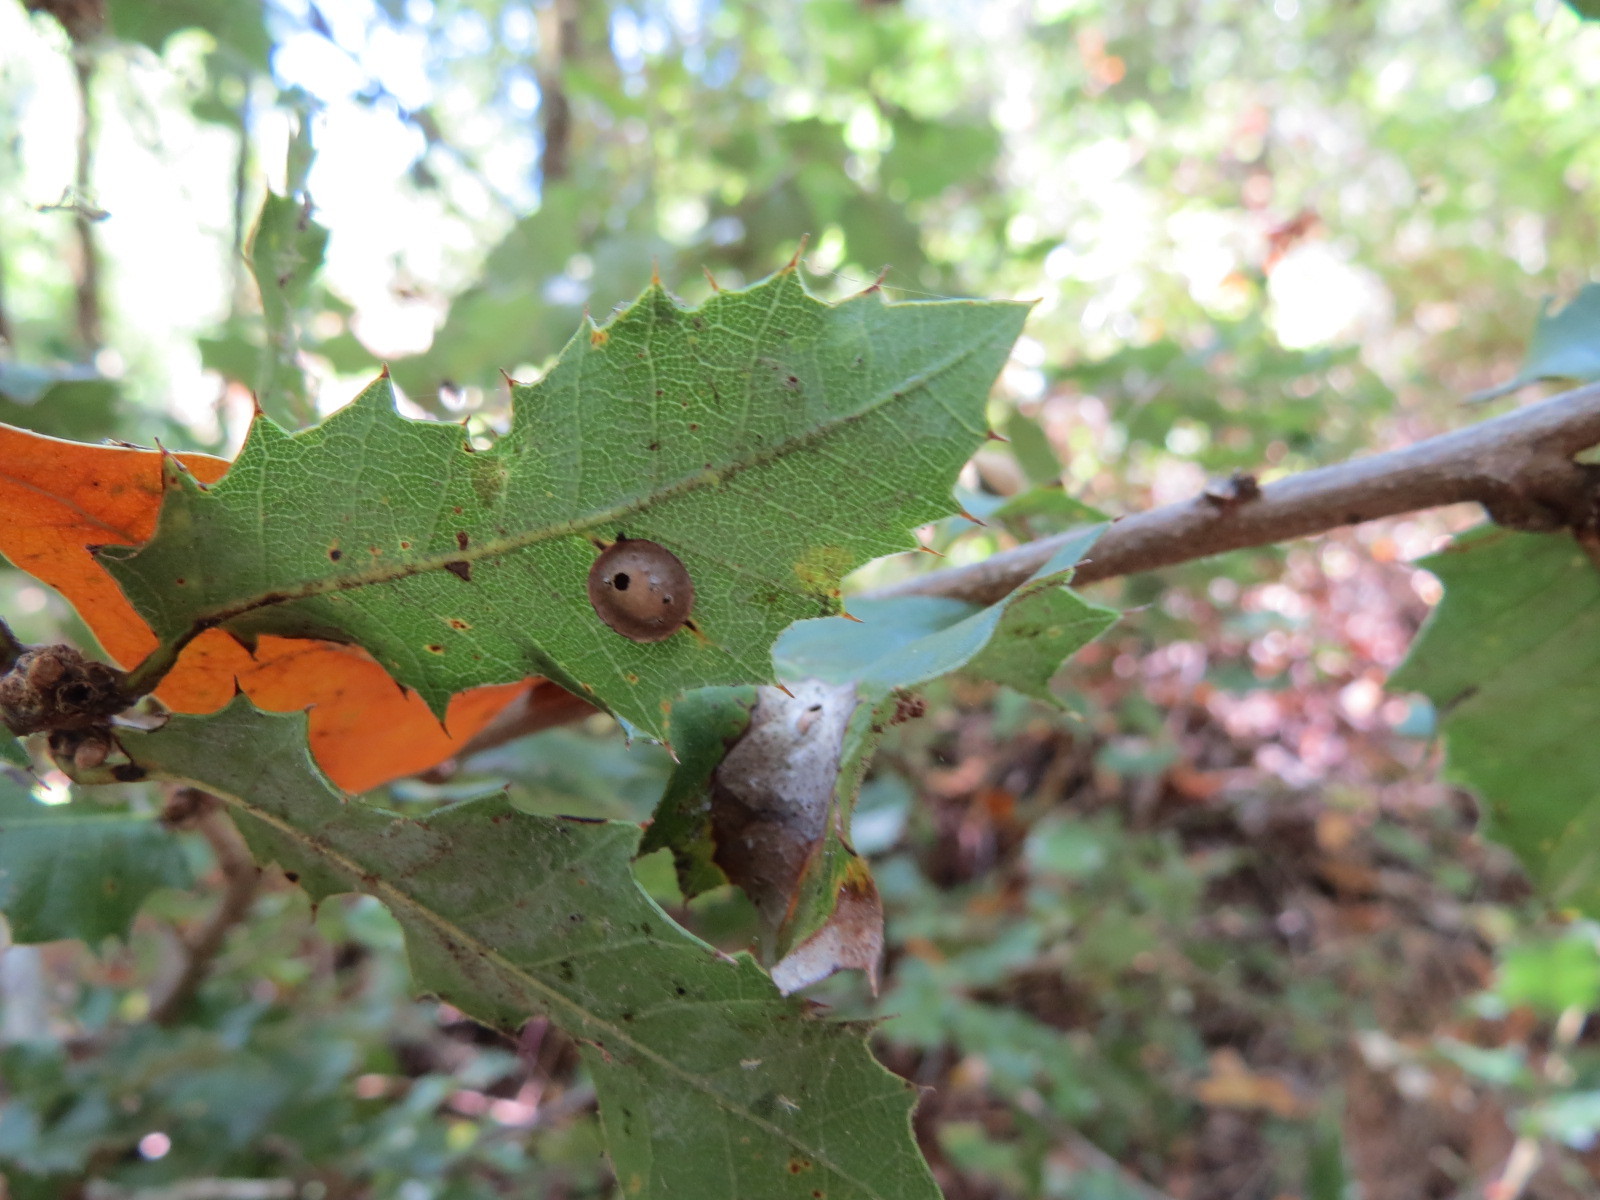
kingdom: Animalia
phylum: Arthropoda
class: Insecta
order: Hymenoptera
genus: Paracraspis
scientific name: Paracraspis
